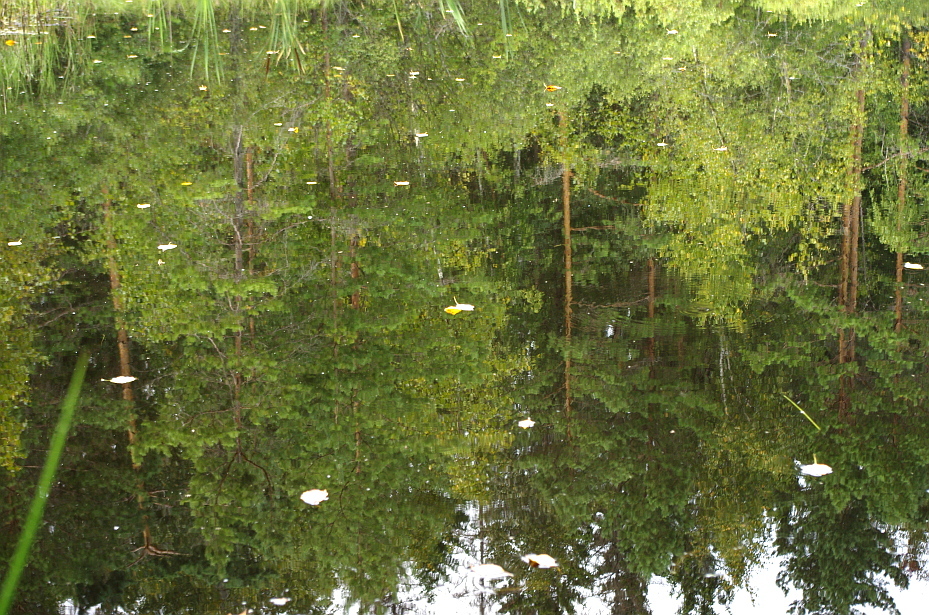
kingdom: Plantae
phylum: Tracheophyta
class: Pinopsida
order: Pinales
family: Pinaceae
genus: Pinus
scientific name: Pinus sylvestris
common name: Scots pine
